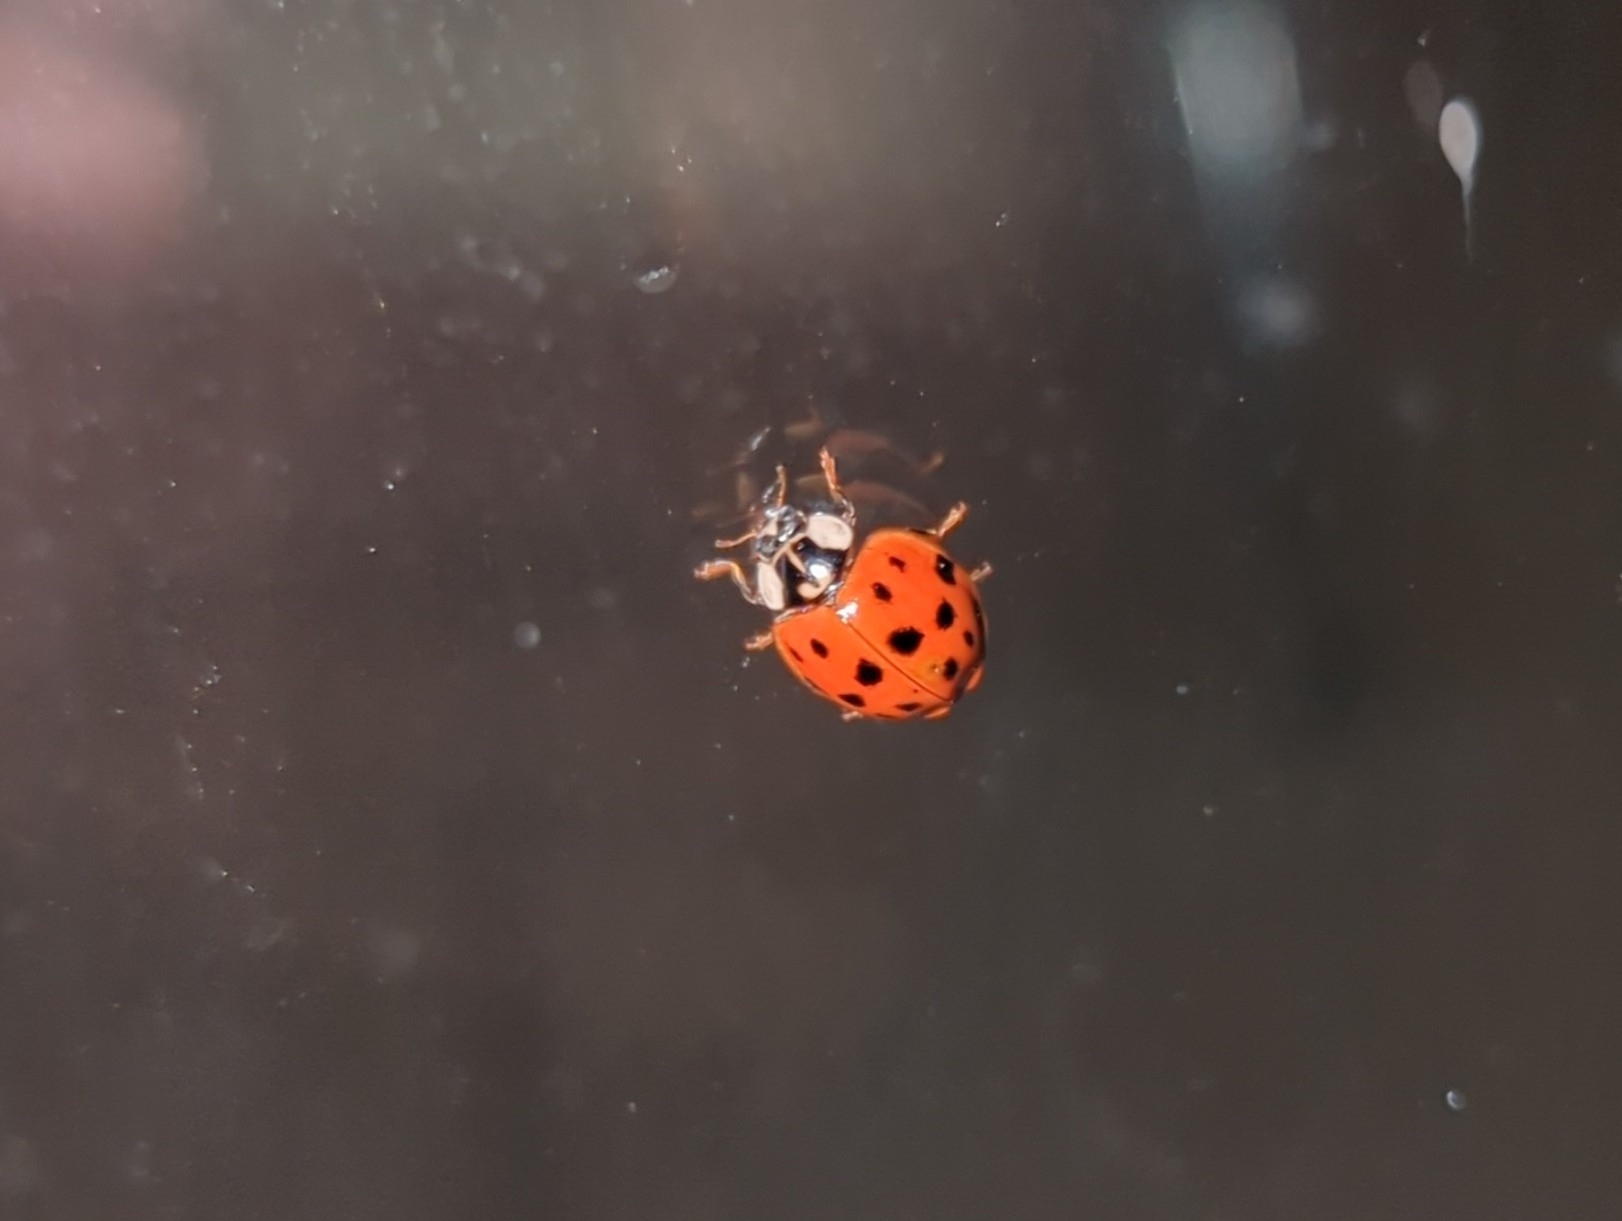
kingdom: Animalia
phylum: Arthropoda
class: Insecta
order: Coleoptera
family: Coccinellidae
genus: Harmonia
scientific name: Harmonia axyridis
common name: Harlequin ladybird
